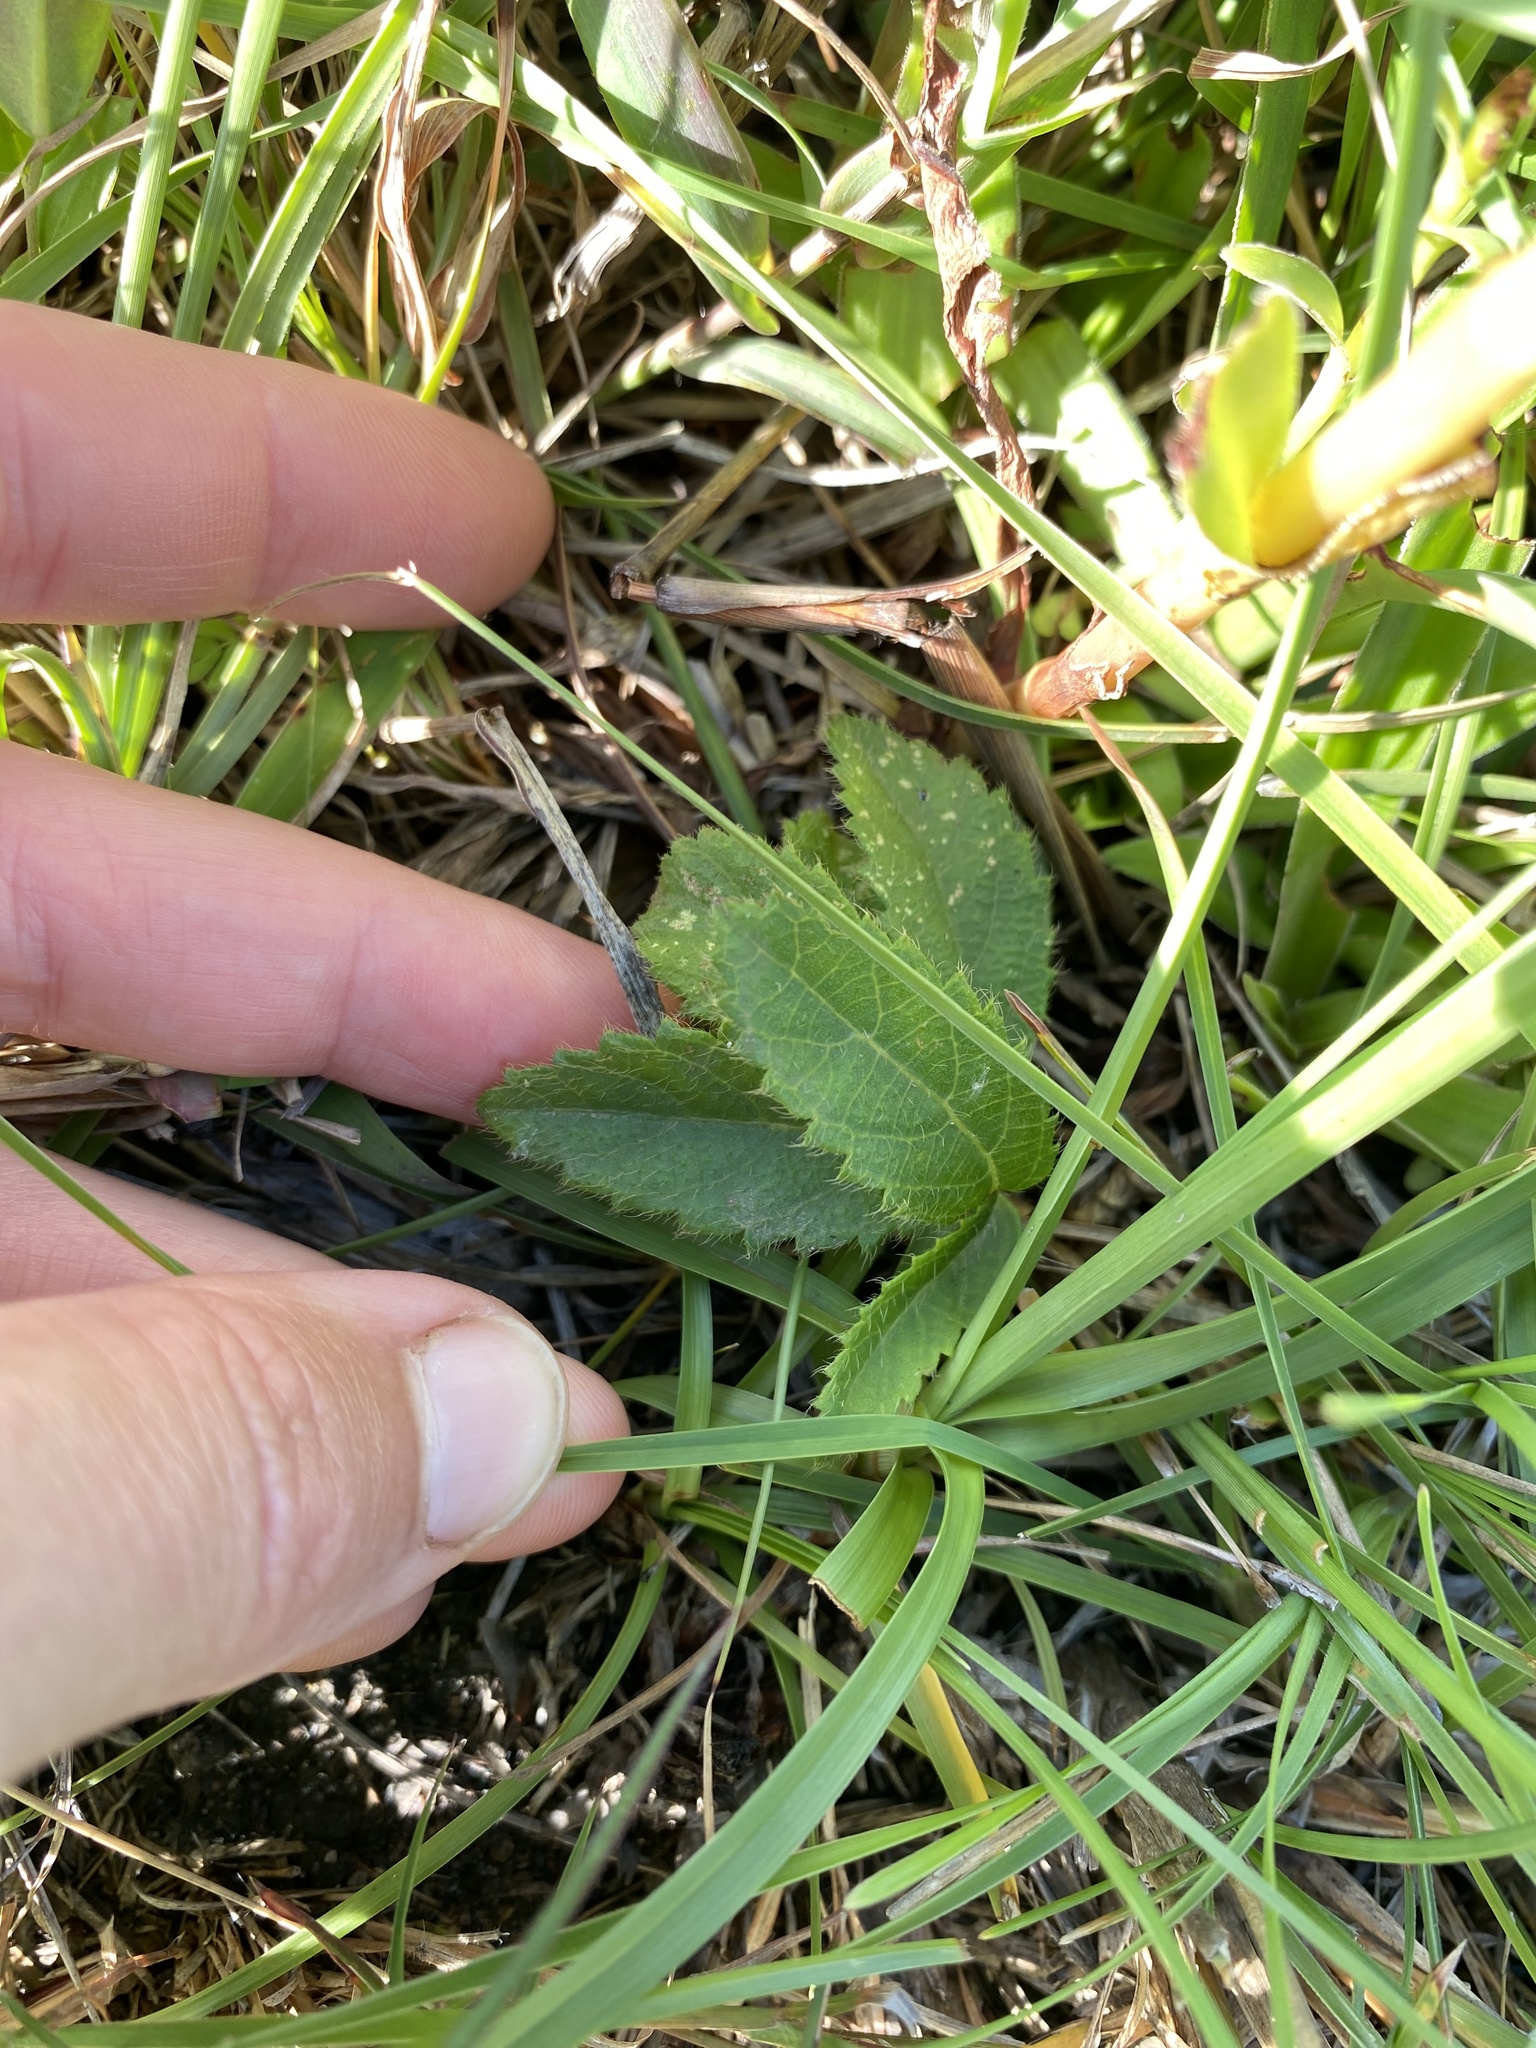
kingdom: Plantae
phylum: Tracheophyta
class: Magnoliopsida
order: Saxifragales
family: Crassulaceae
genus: Crassula
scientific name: Crassula vaginata
